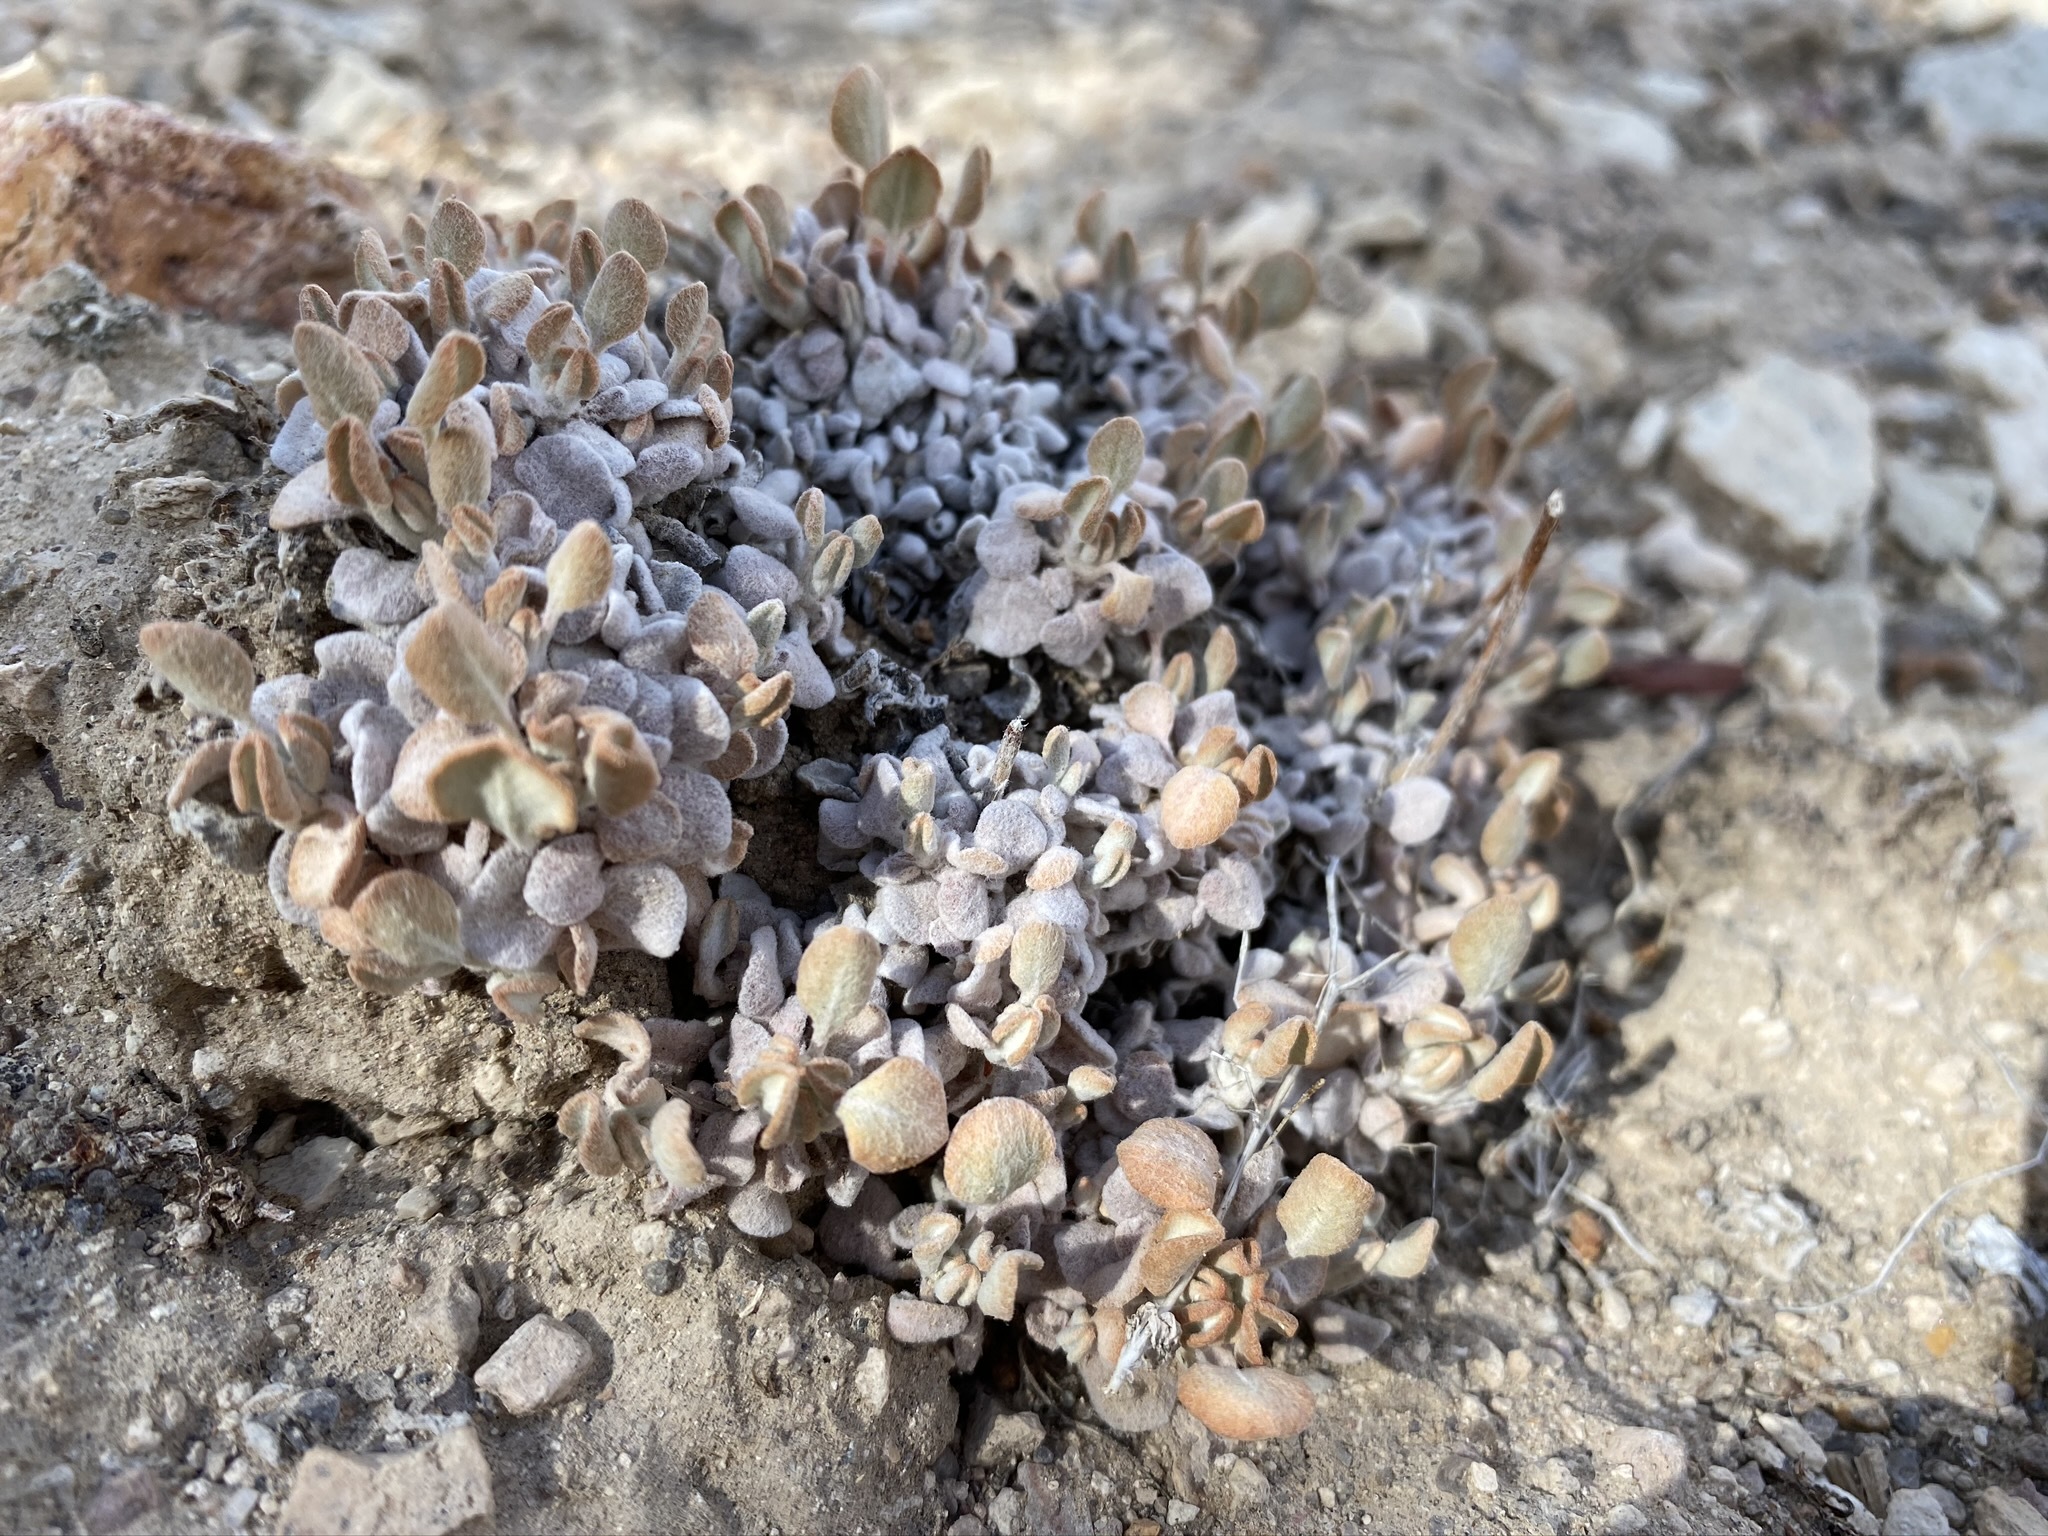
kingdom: Plantae
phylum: Tracheophyta
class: Magnoliopsida
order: Caryophyllales
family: Polygonaceae
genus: Eriogonum
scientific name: Eriogonum ovalifolium
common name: Cushion buckwheat
